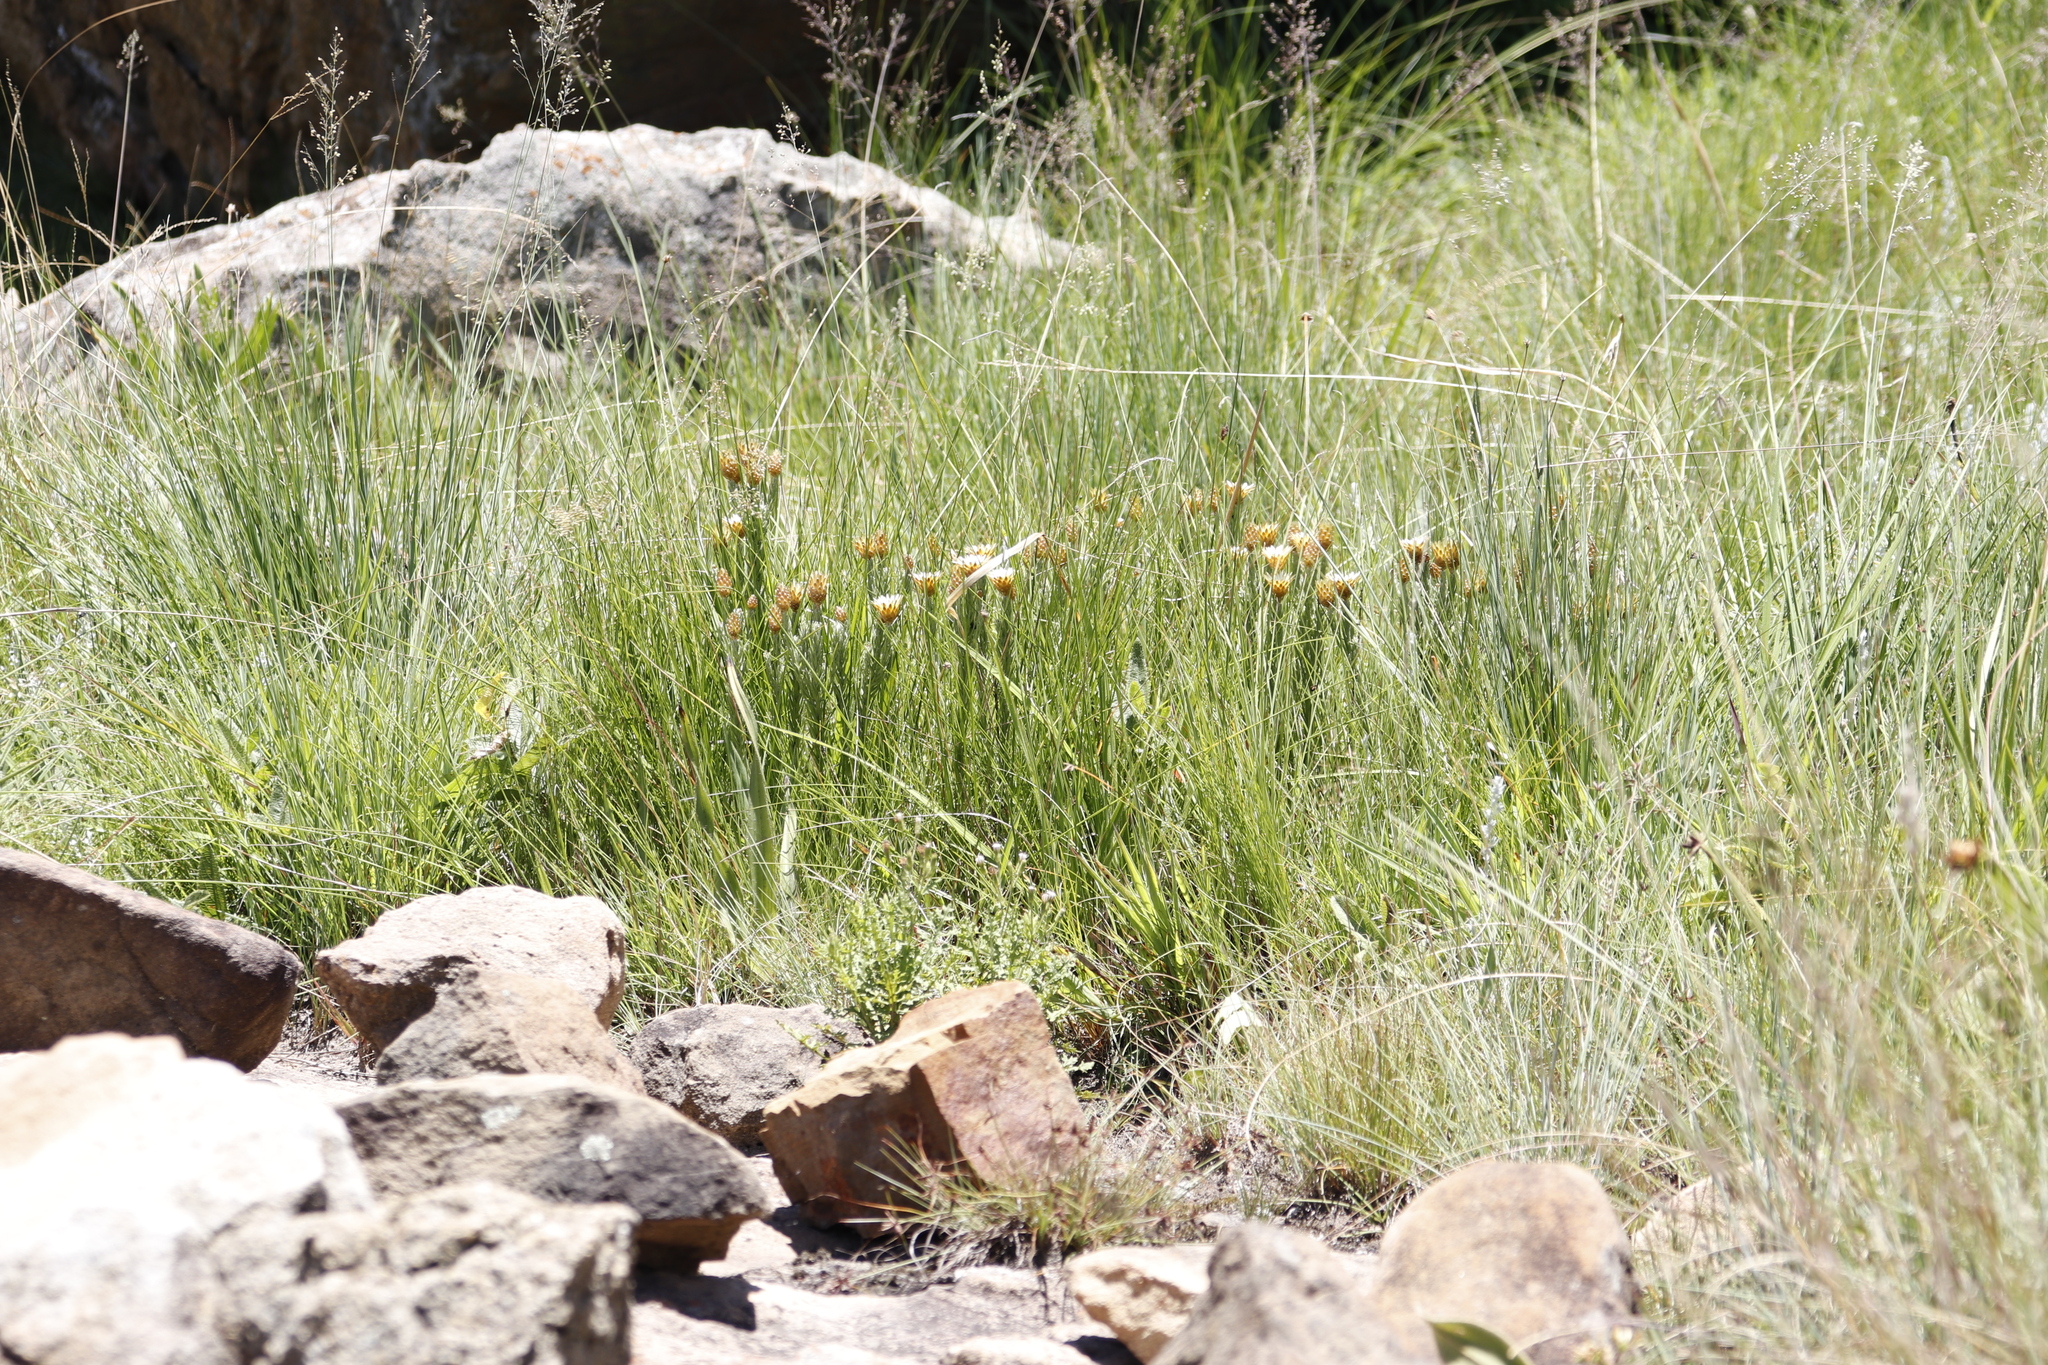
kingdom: Plantae
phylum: Tracheophyta
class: Magnoliopsida
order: Asterales
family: Asteraceae
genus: Helichrysum
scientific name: Helichrysum herbaceum
